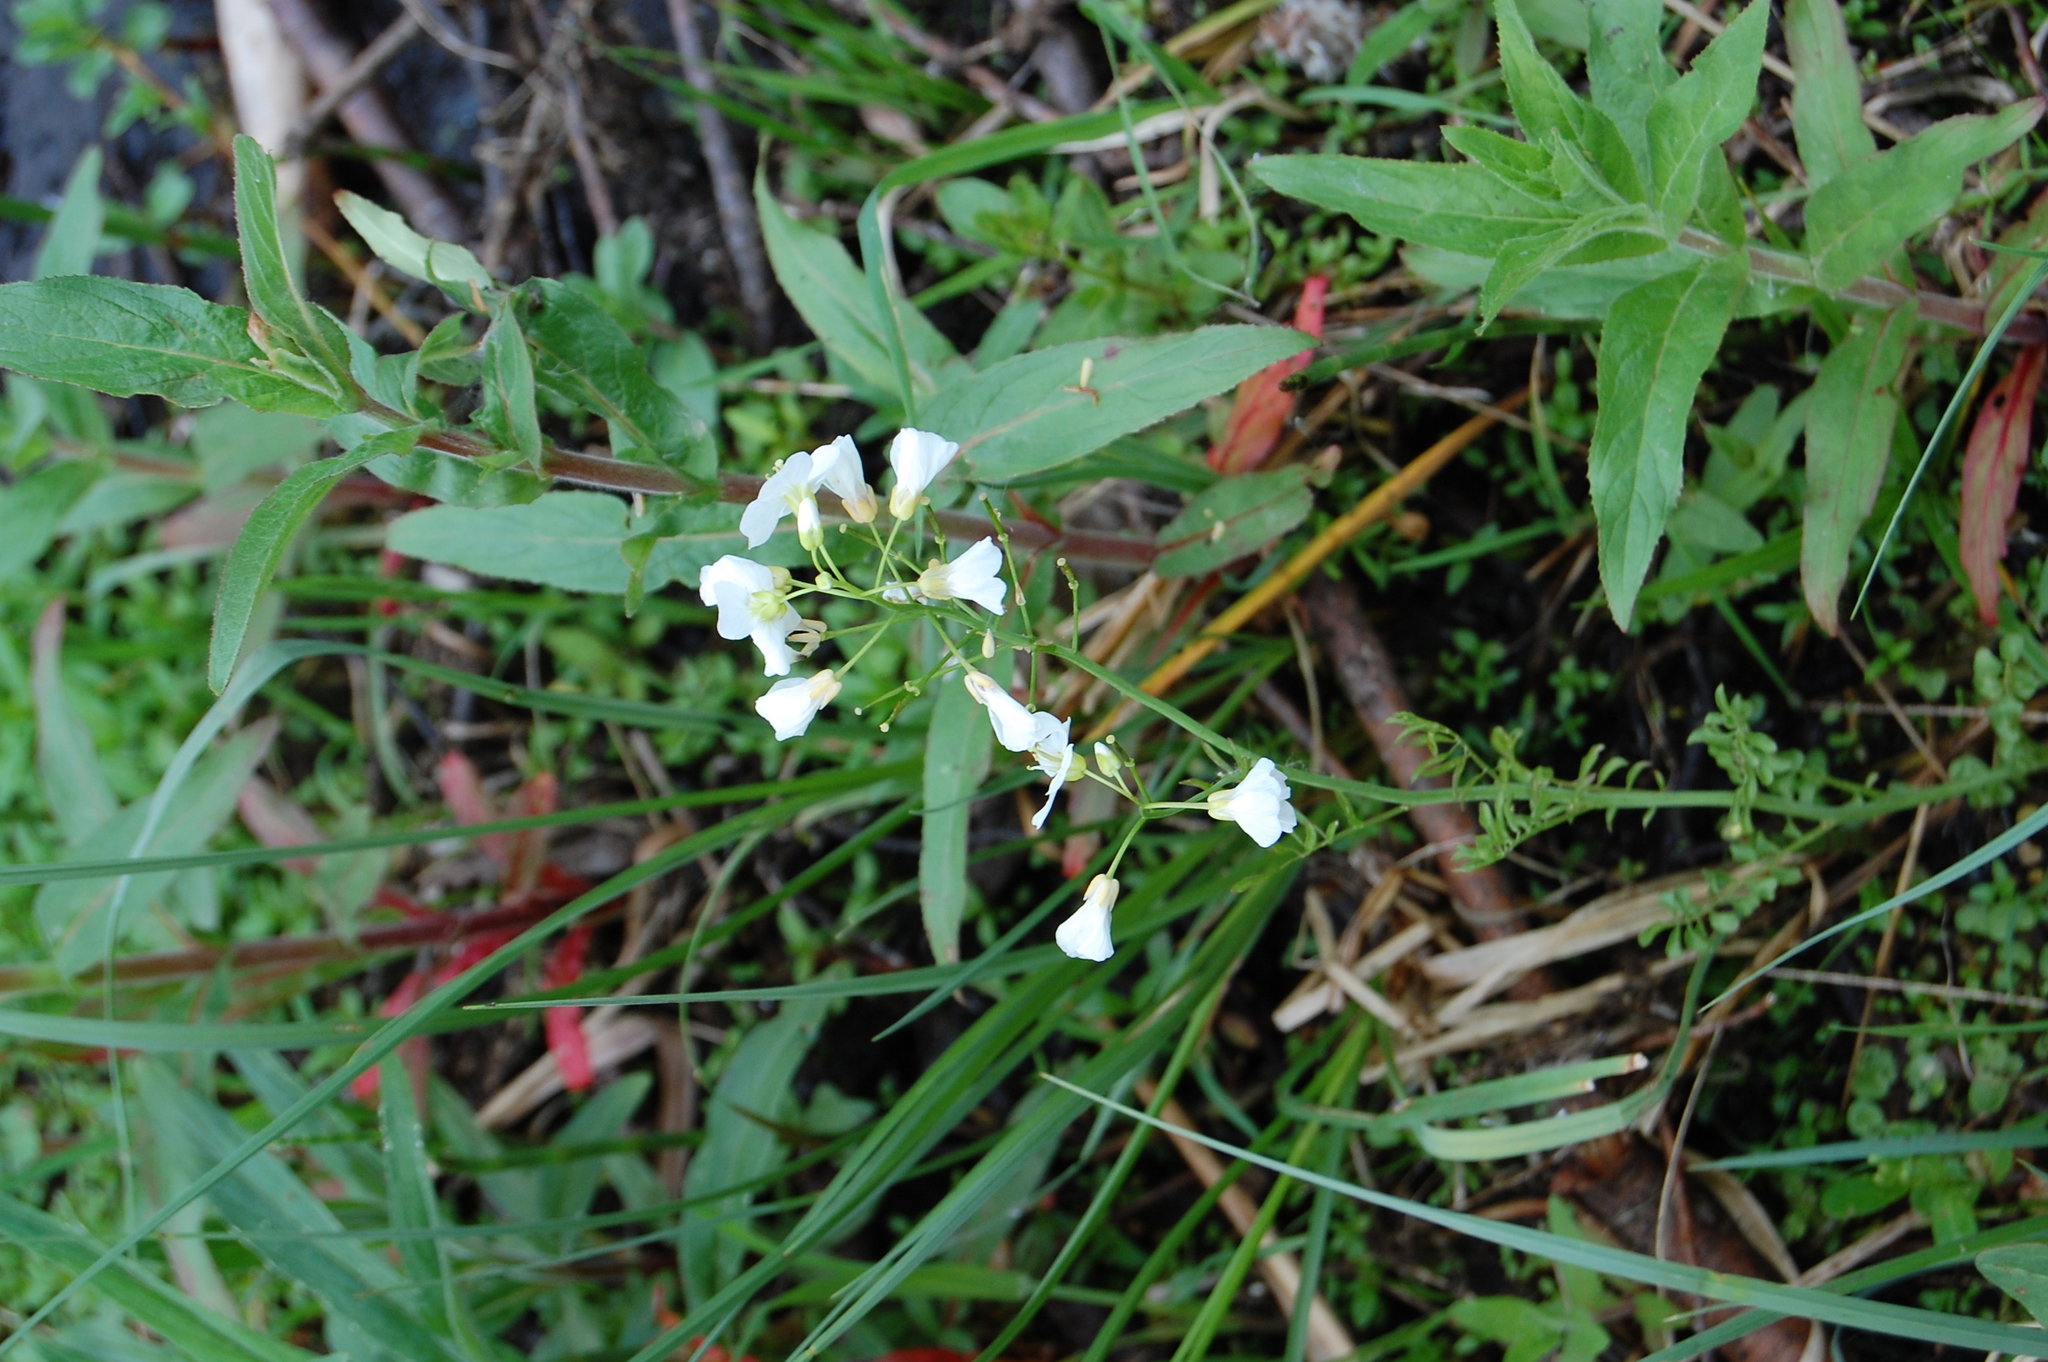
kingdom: Plantae
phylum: Tracheophyta
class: Magnoliopsida
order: Brassicales
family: Brassicaceae
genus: Cardamine
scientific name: Cardamine dentata
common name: Toothed bittercress
